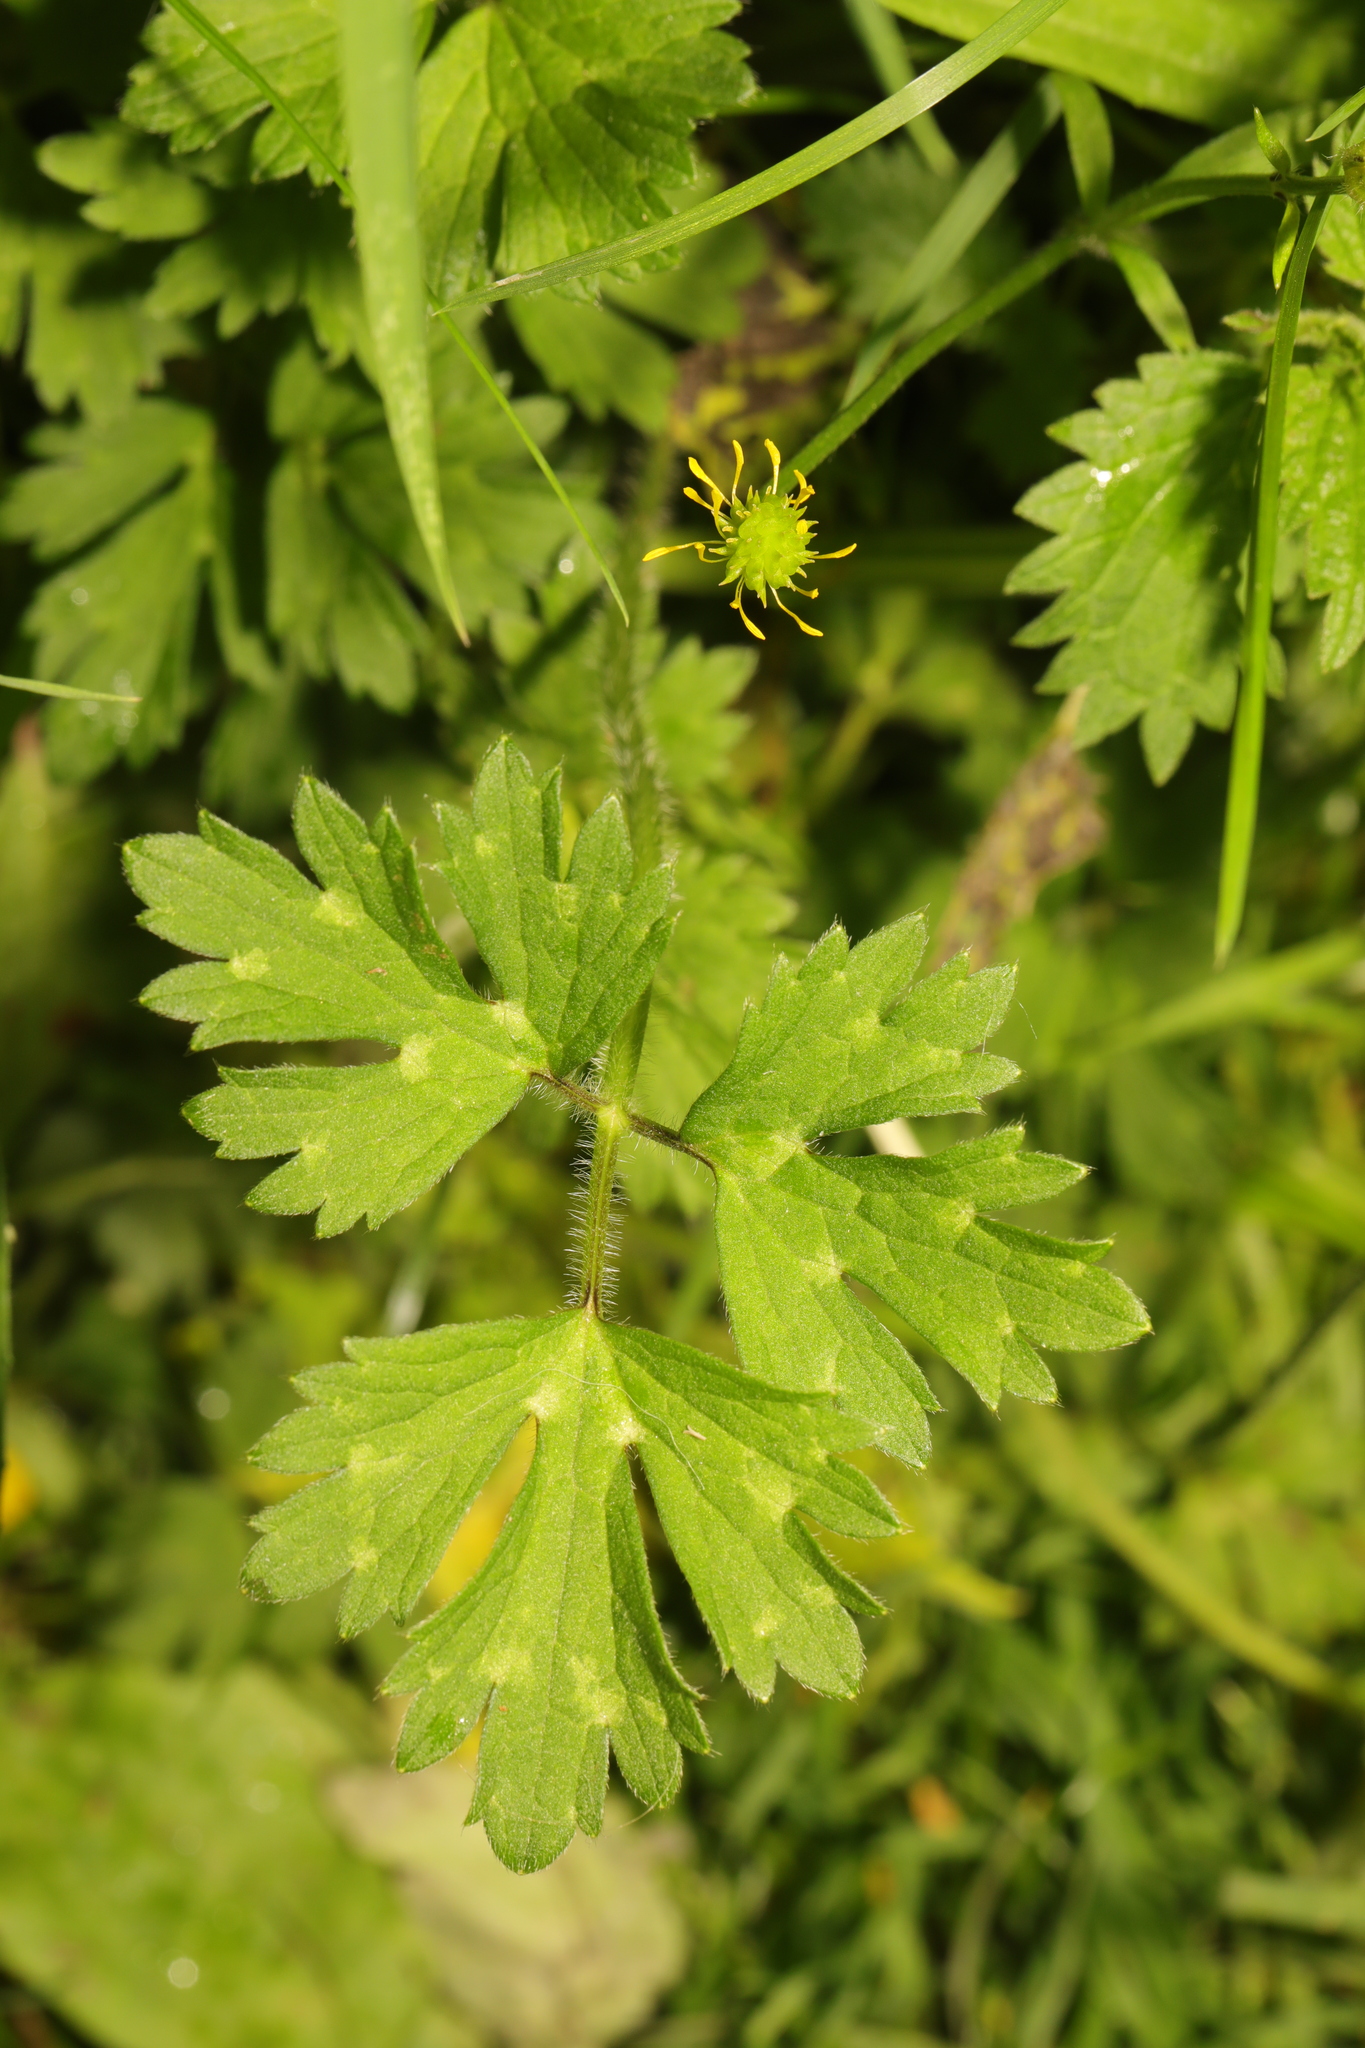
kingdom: Plantae
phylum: Tracheophyta
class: Magnoliopsida
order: Ranunculales
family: Ranunculaceae
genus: Ranunculus
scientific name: Ranunculus repens
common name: Creeping buttercup
